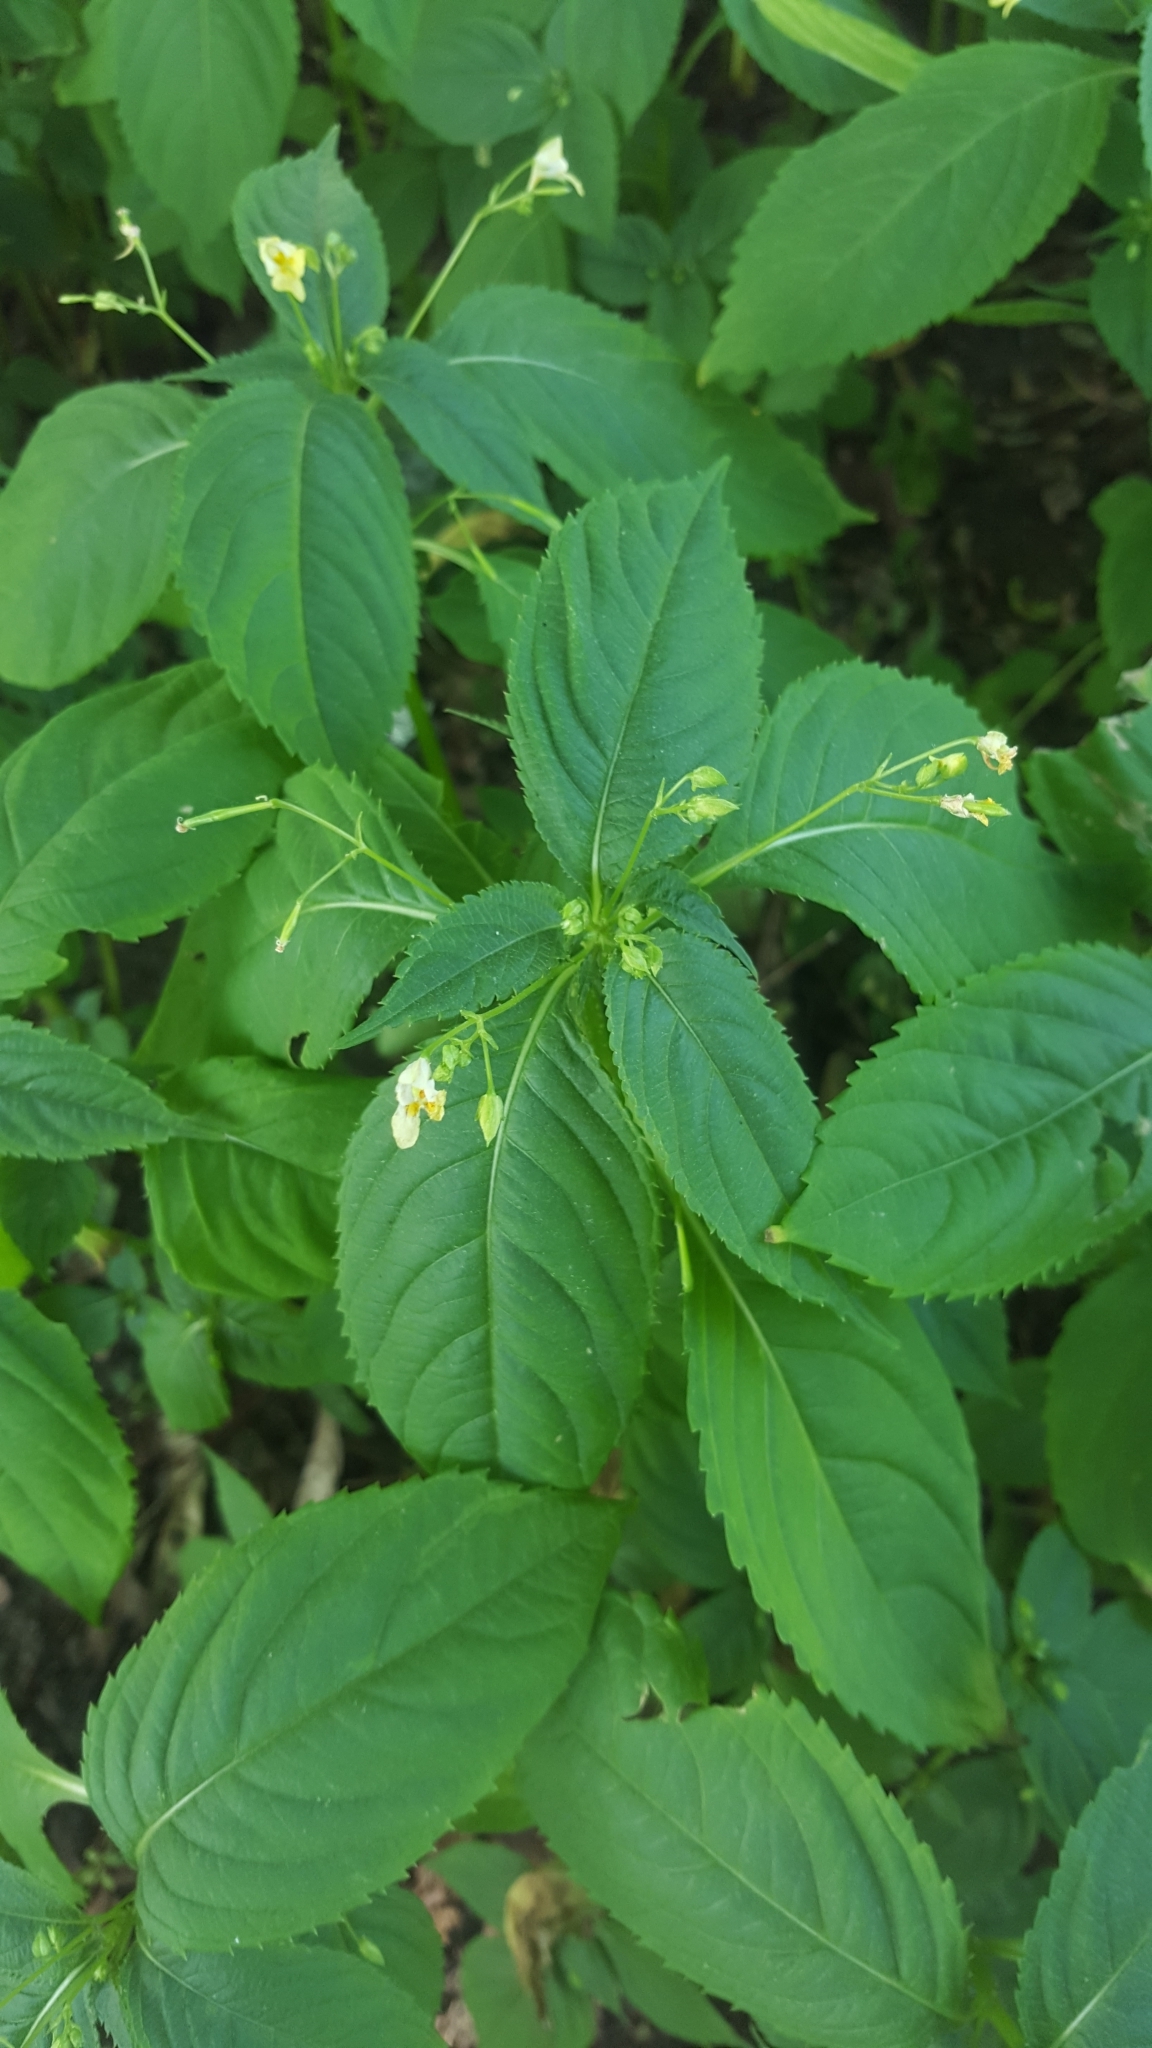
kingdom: Plantae
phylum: Tracheophyta
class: Magnoliopsida
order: Ericales
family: Balsaminaceae
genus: Impatiens
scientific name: Impatiens parviflora
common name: Small balsam
